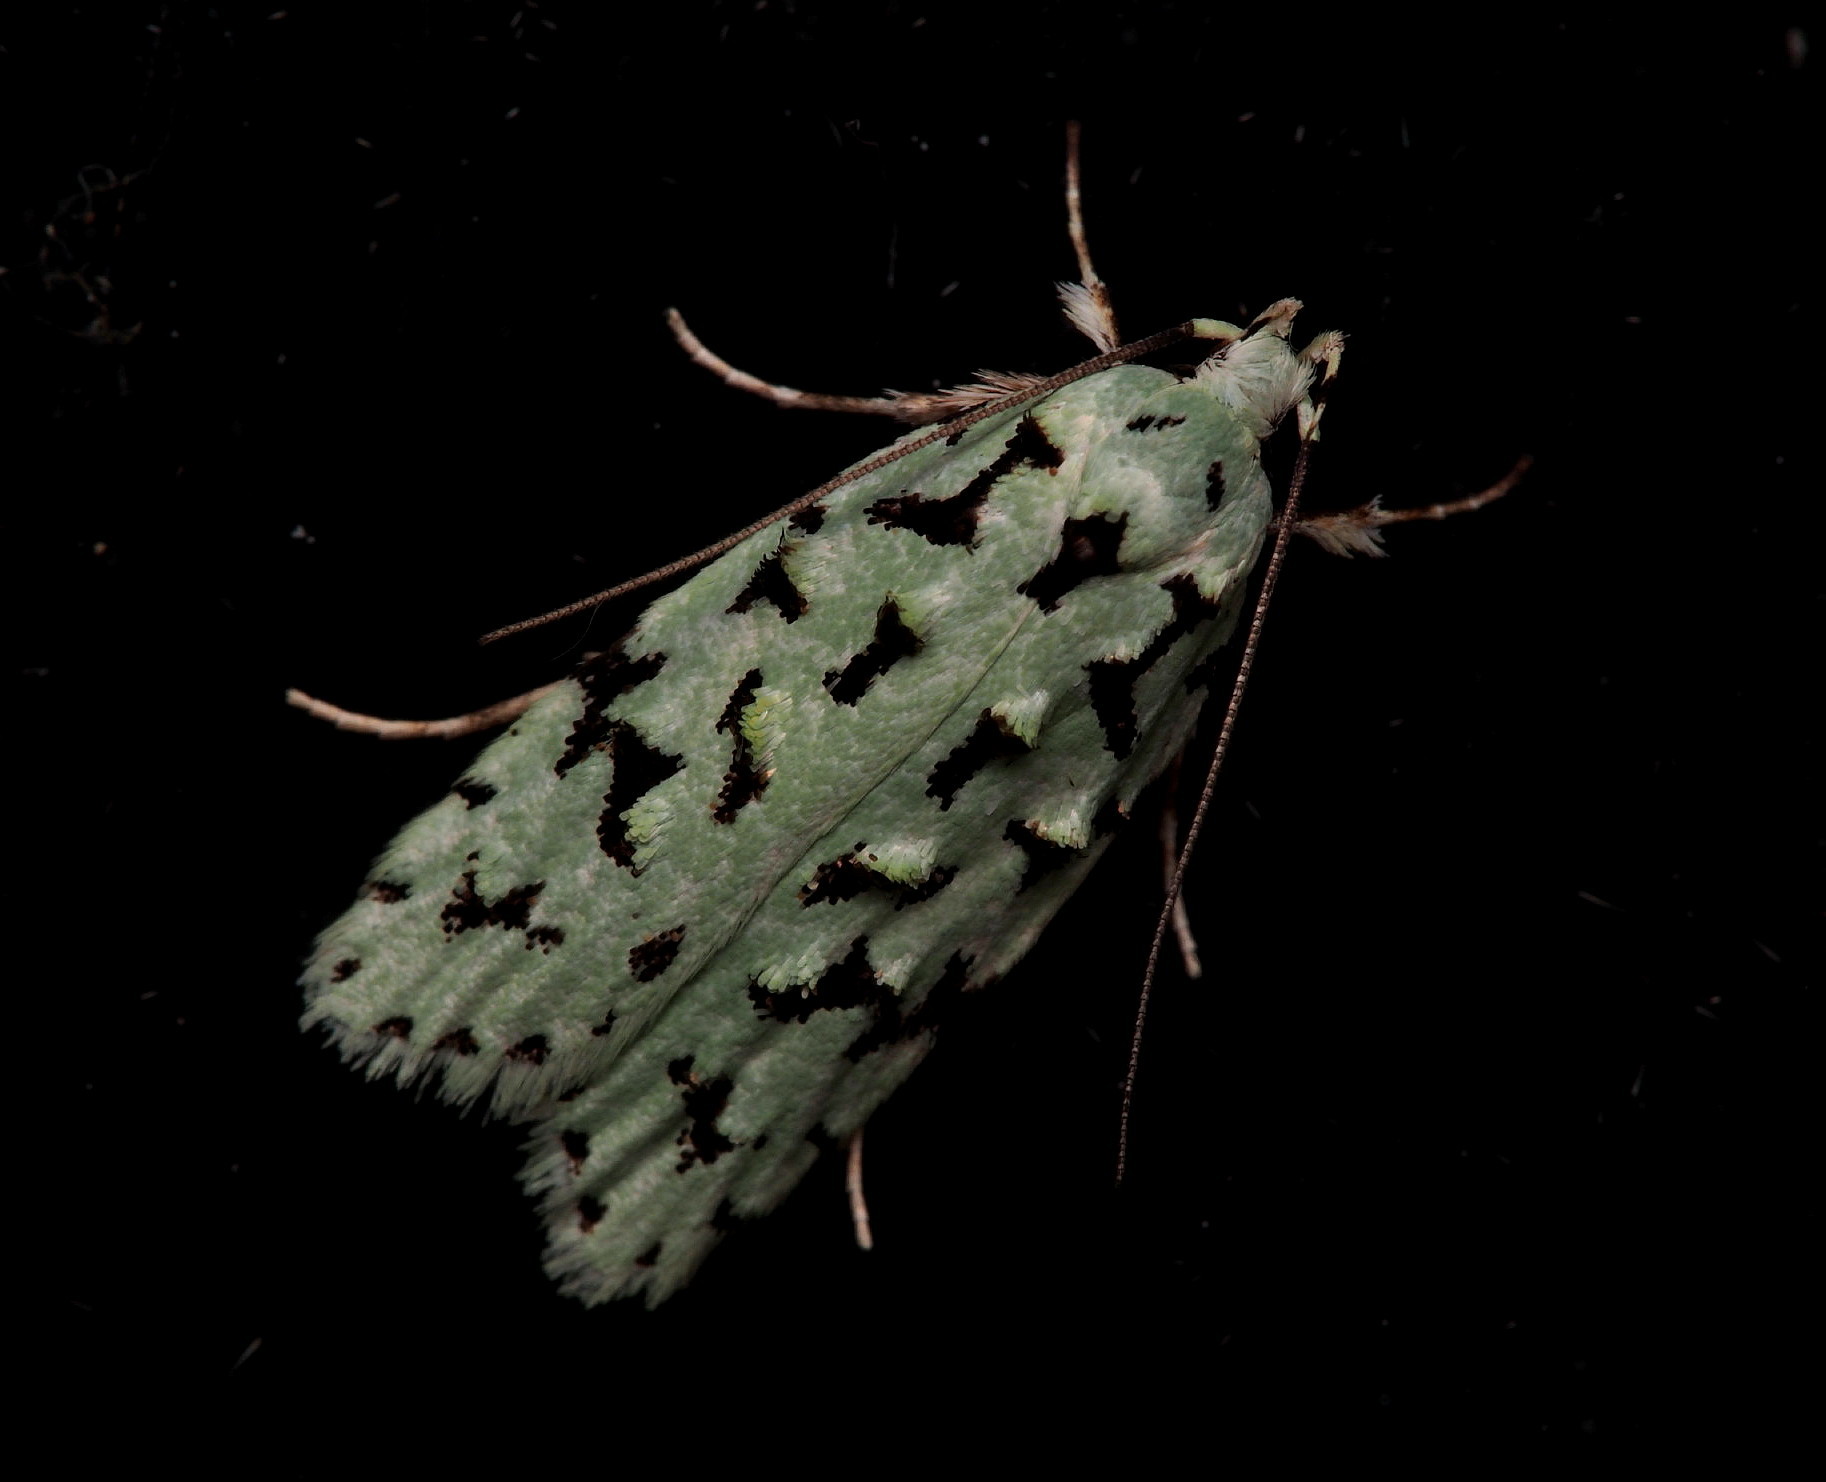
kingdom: Animalia
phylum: Arthropoda
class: Insecta
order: Lepidoptera
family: Oecophoridae
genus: Izatha
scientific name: Izatha peroneanella
